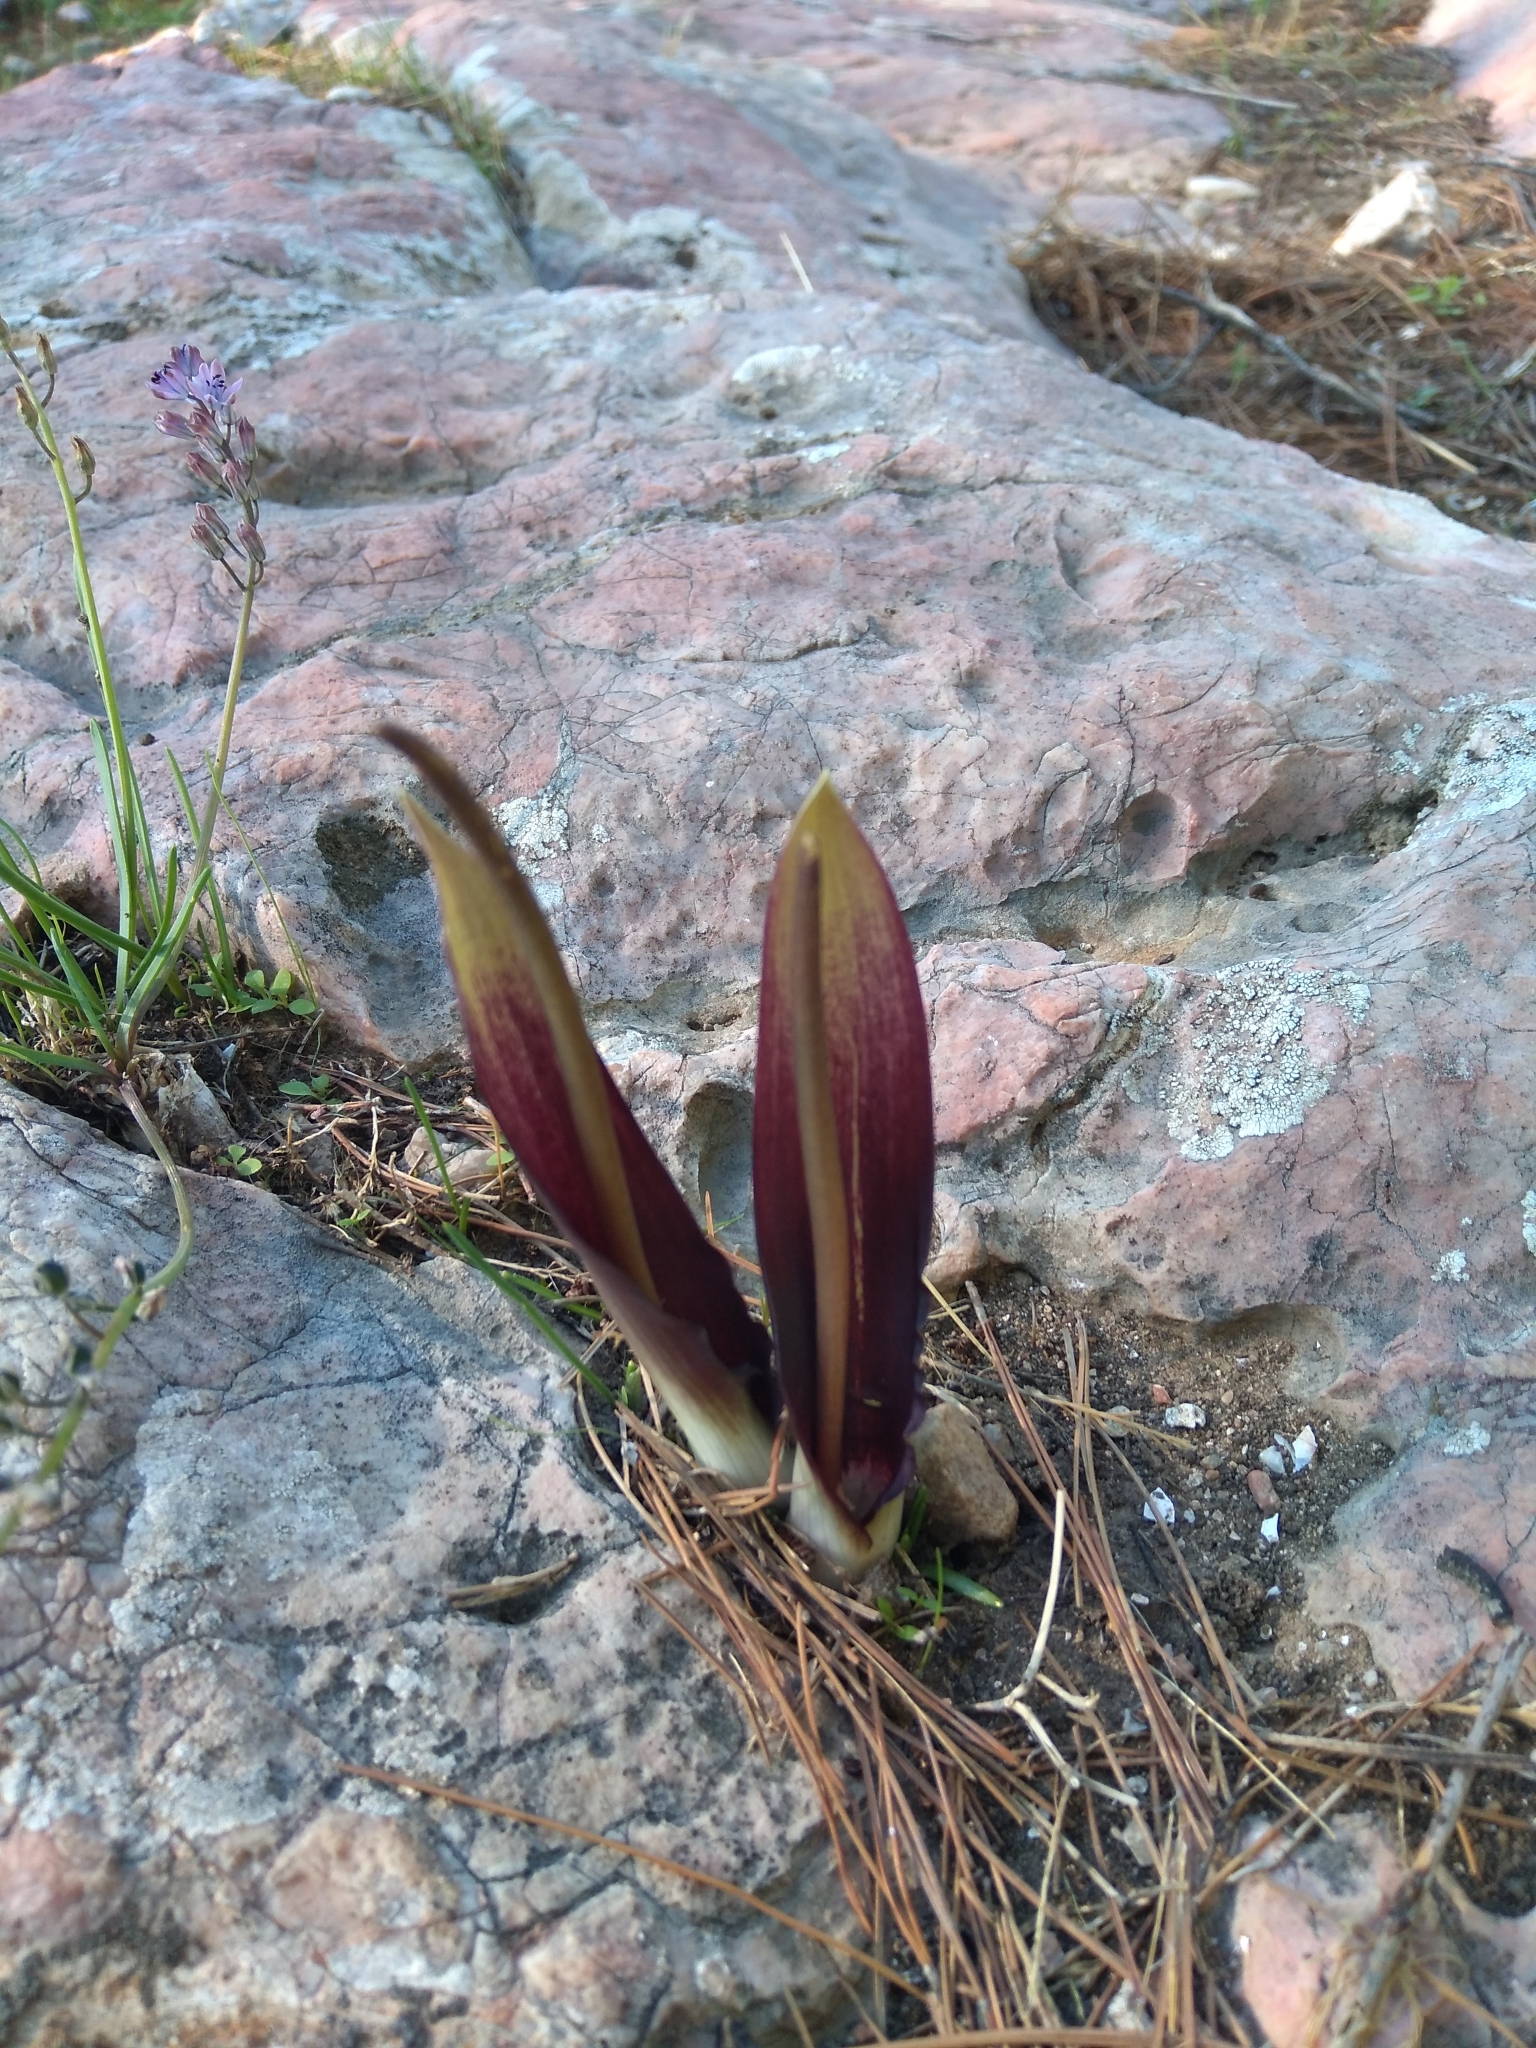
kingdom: Plantae
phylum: Tracheophyta
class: Liliopsida
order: Alismatales
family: Araceae
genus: Biarum
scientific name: Biarum tenuifolium
